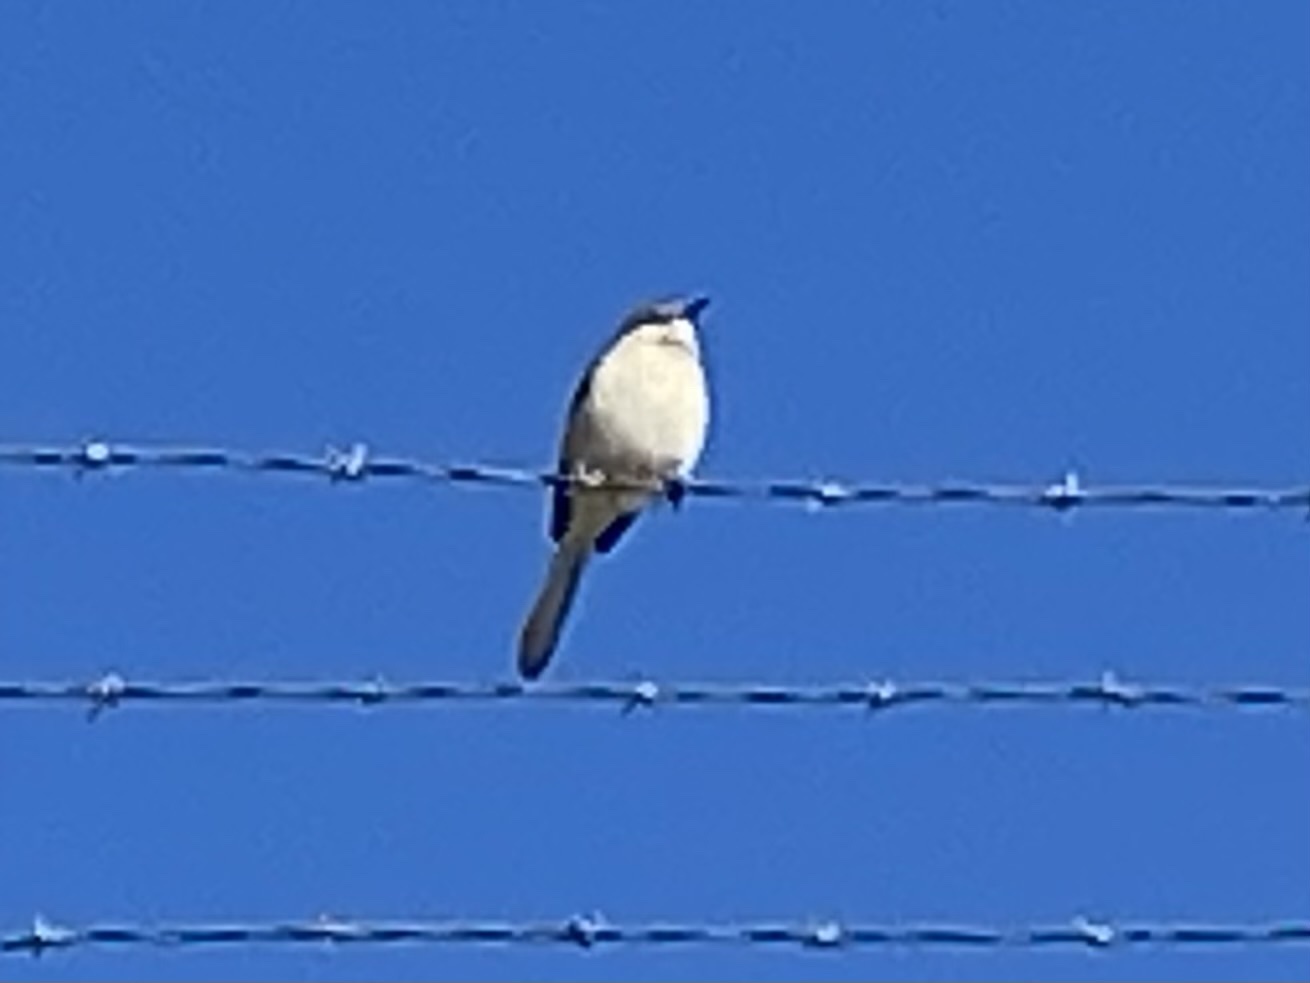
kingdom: Animalia
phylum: Chordata
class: Aves
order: Passeriformes
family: Mimidae
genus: Mimus
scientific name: Mimus polyglottos
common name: Northern mockingbird
